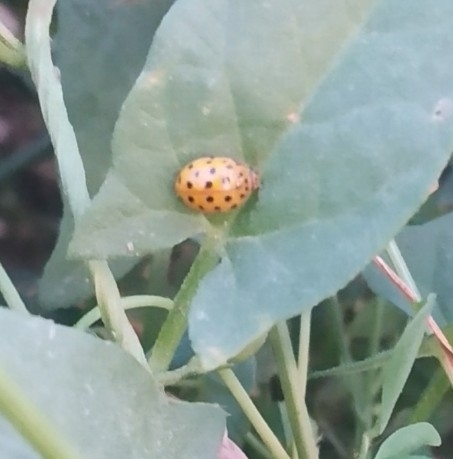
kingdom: Animalia
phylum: Arthropoda
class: Insecta
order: Coleoptera
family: Coccinellidae
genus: Psyllobora
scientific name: Psyllobora vigintiduopunctata
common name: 22-spot ladybird
